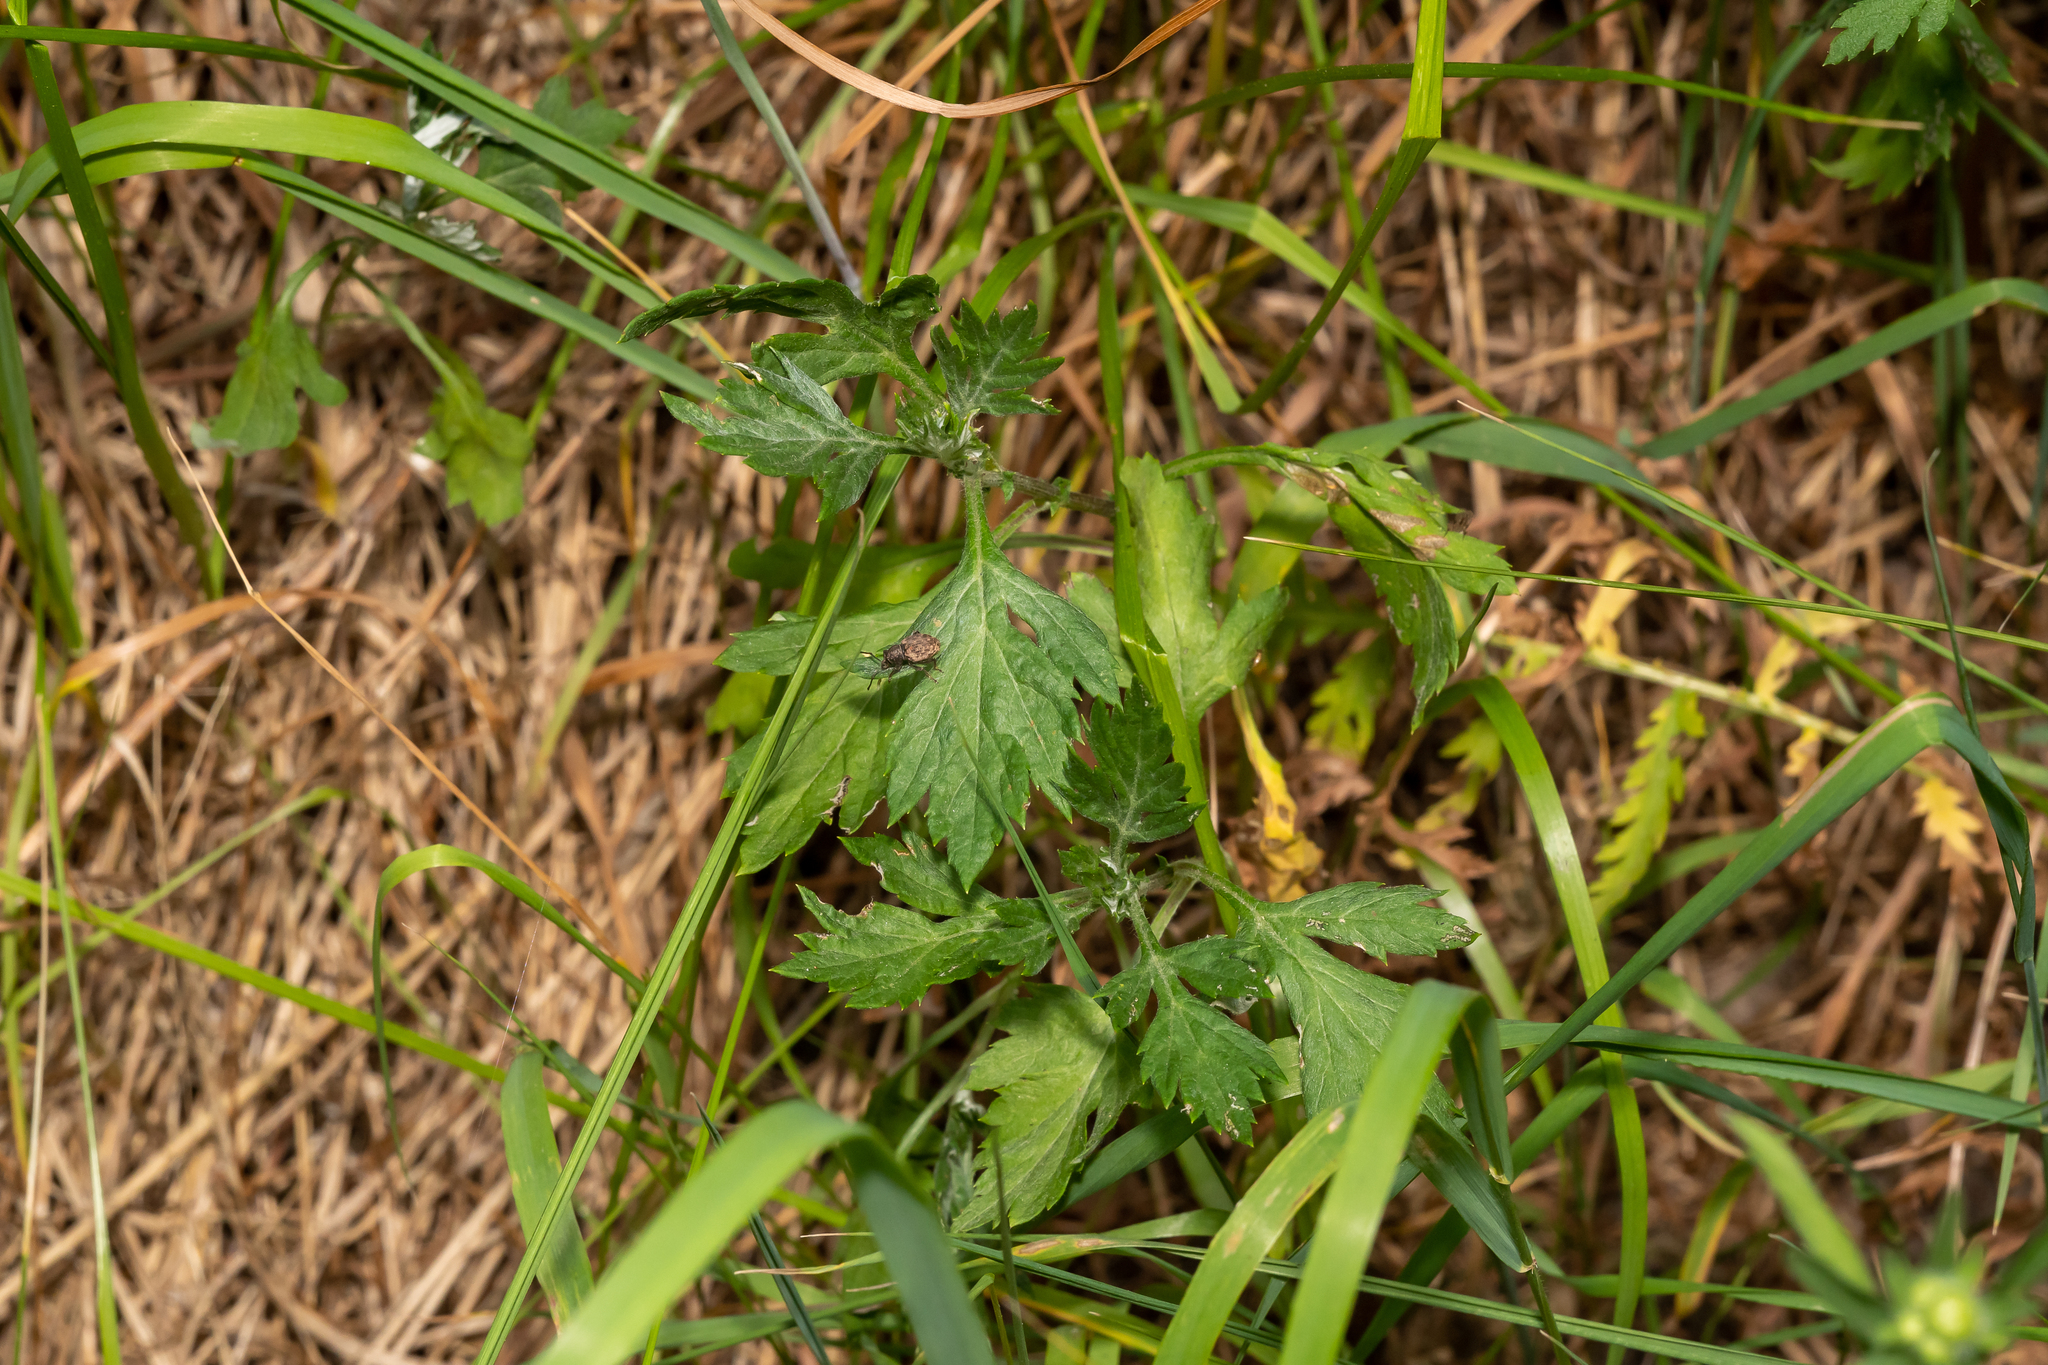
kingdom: Animalia
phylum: Arthropoda
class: Insecta
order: Coleoptera
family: Curculionidae
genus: Otiorhynchus
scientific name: Otiorhynchus raucus
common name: Weevil
